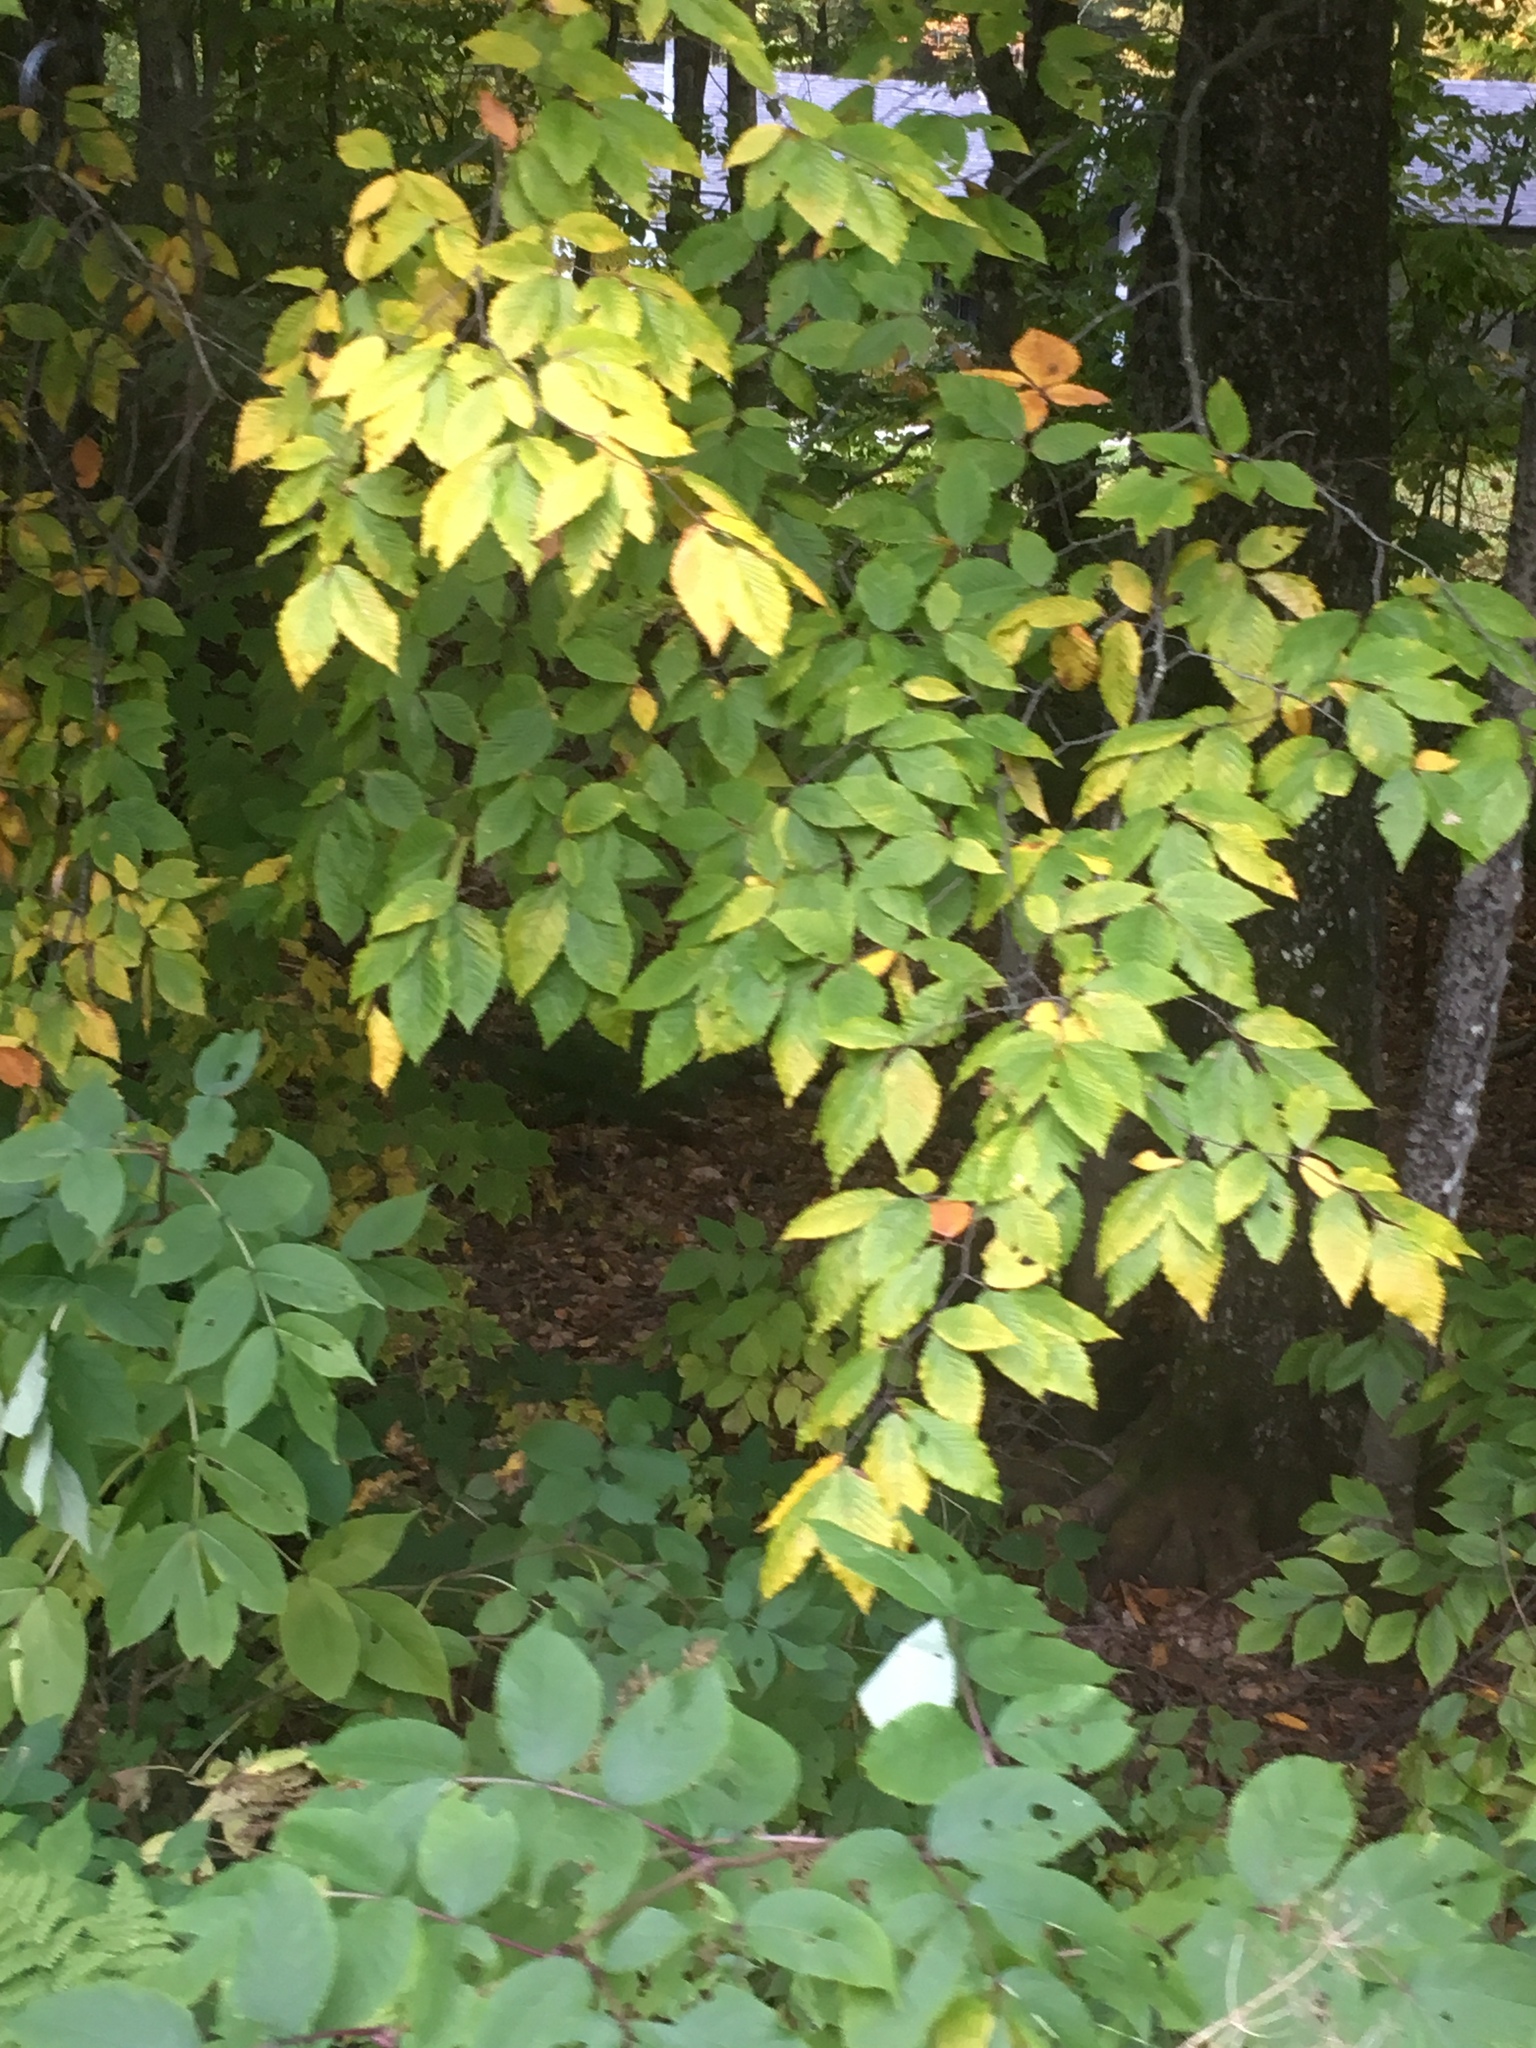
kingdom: Plantae
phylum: Tracheophyta
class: Magnoliopsida
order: Fagales
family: Fagaceae
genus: Fagus
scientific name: Fagus grandifolia
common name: American beech
